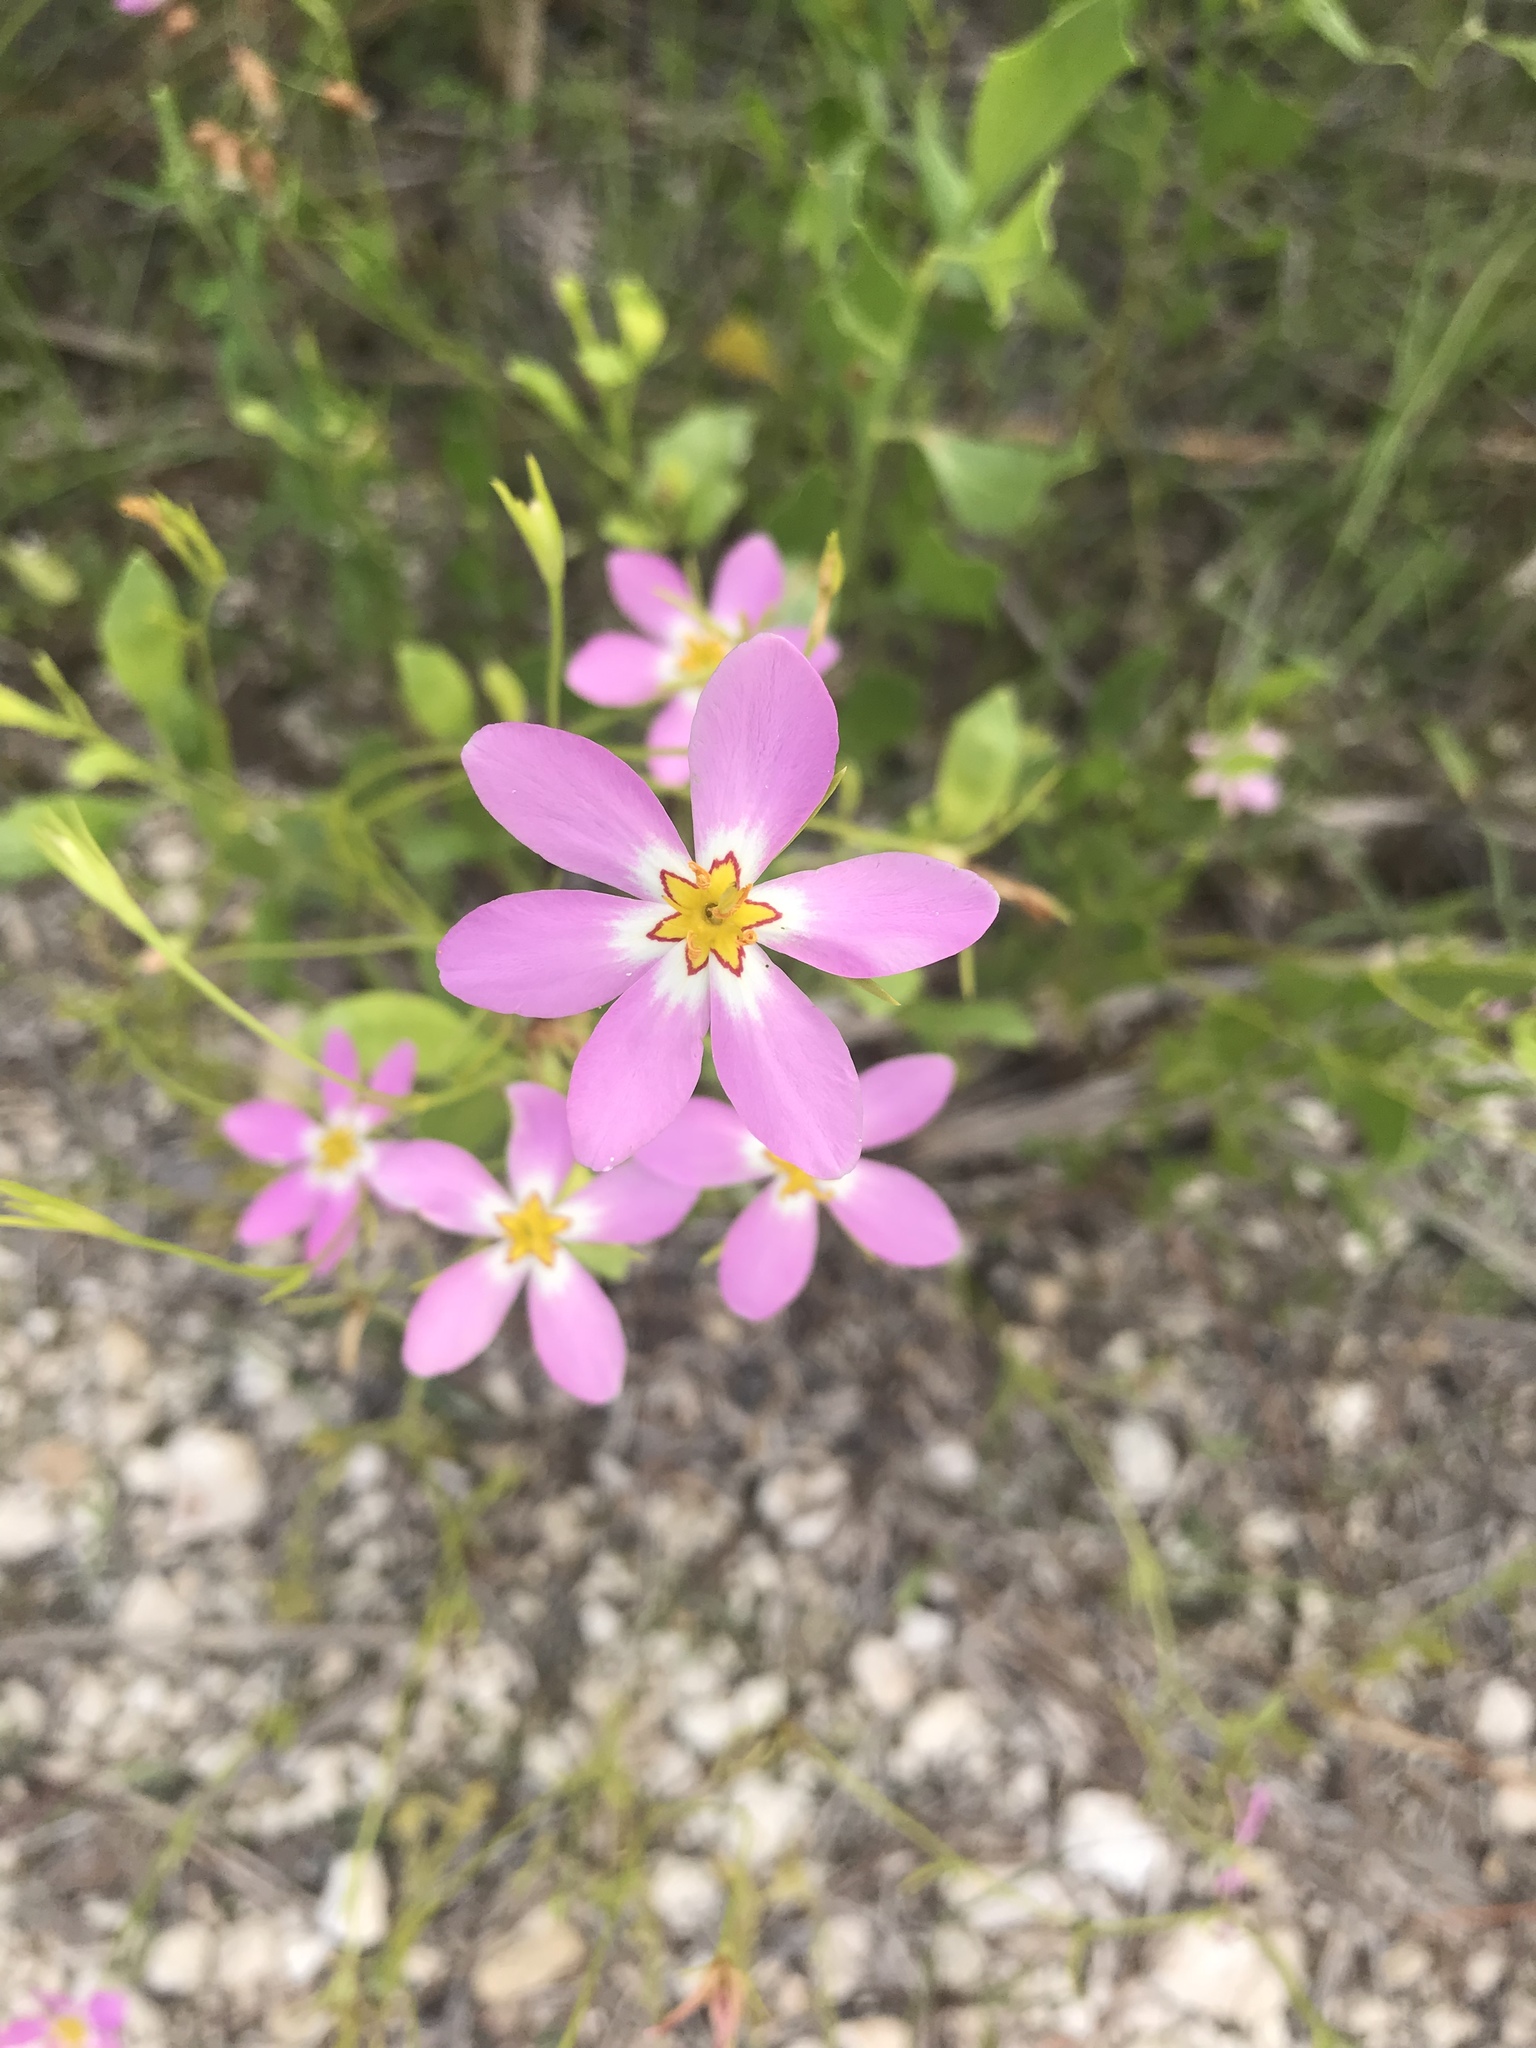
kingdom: Plantae
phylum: Tracheophyta
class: Magnoliopsida
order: Gentianales
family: Gentianaceae
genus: Sabatia
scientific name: Sabatia stellaris
